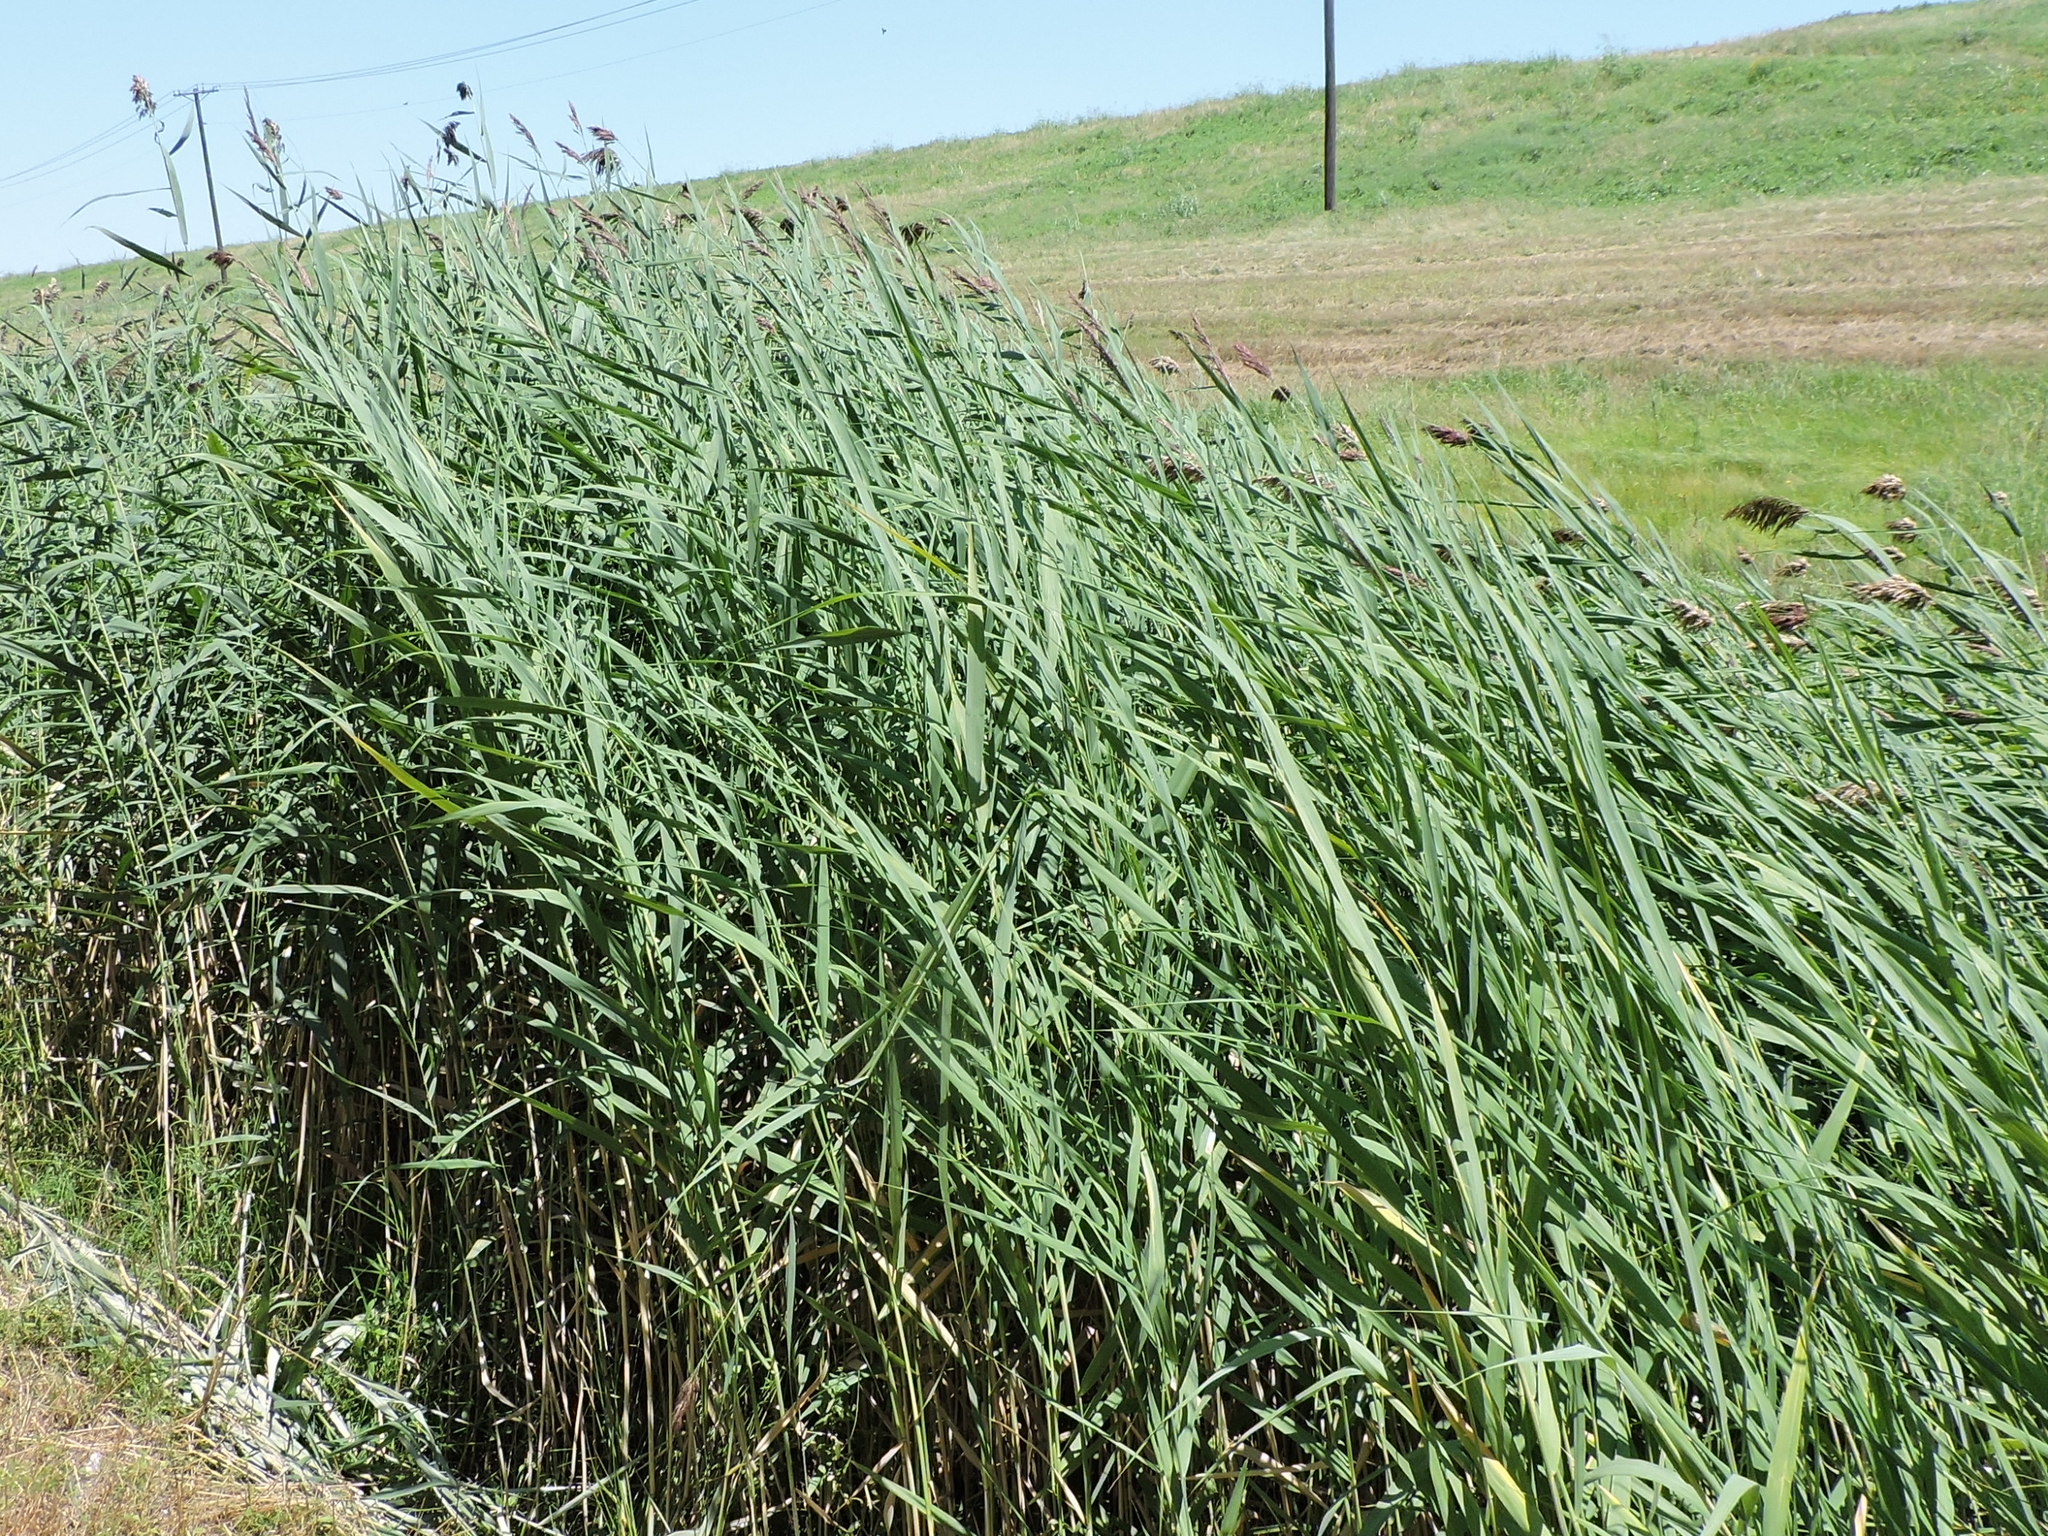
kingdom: Plantae
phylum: Tracheophyta
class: Liliopsida
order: Poales
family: Poaceae
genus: Phragmites
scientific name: Phragmites australis
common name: Common reed
